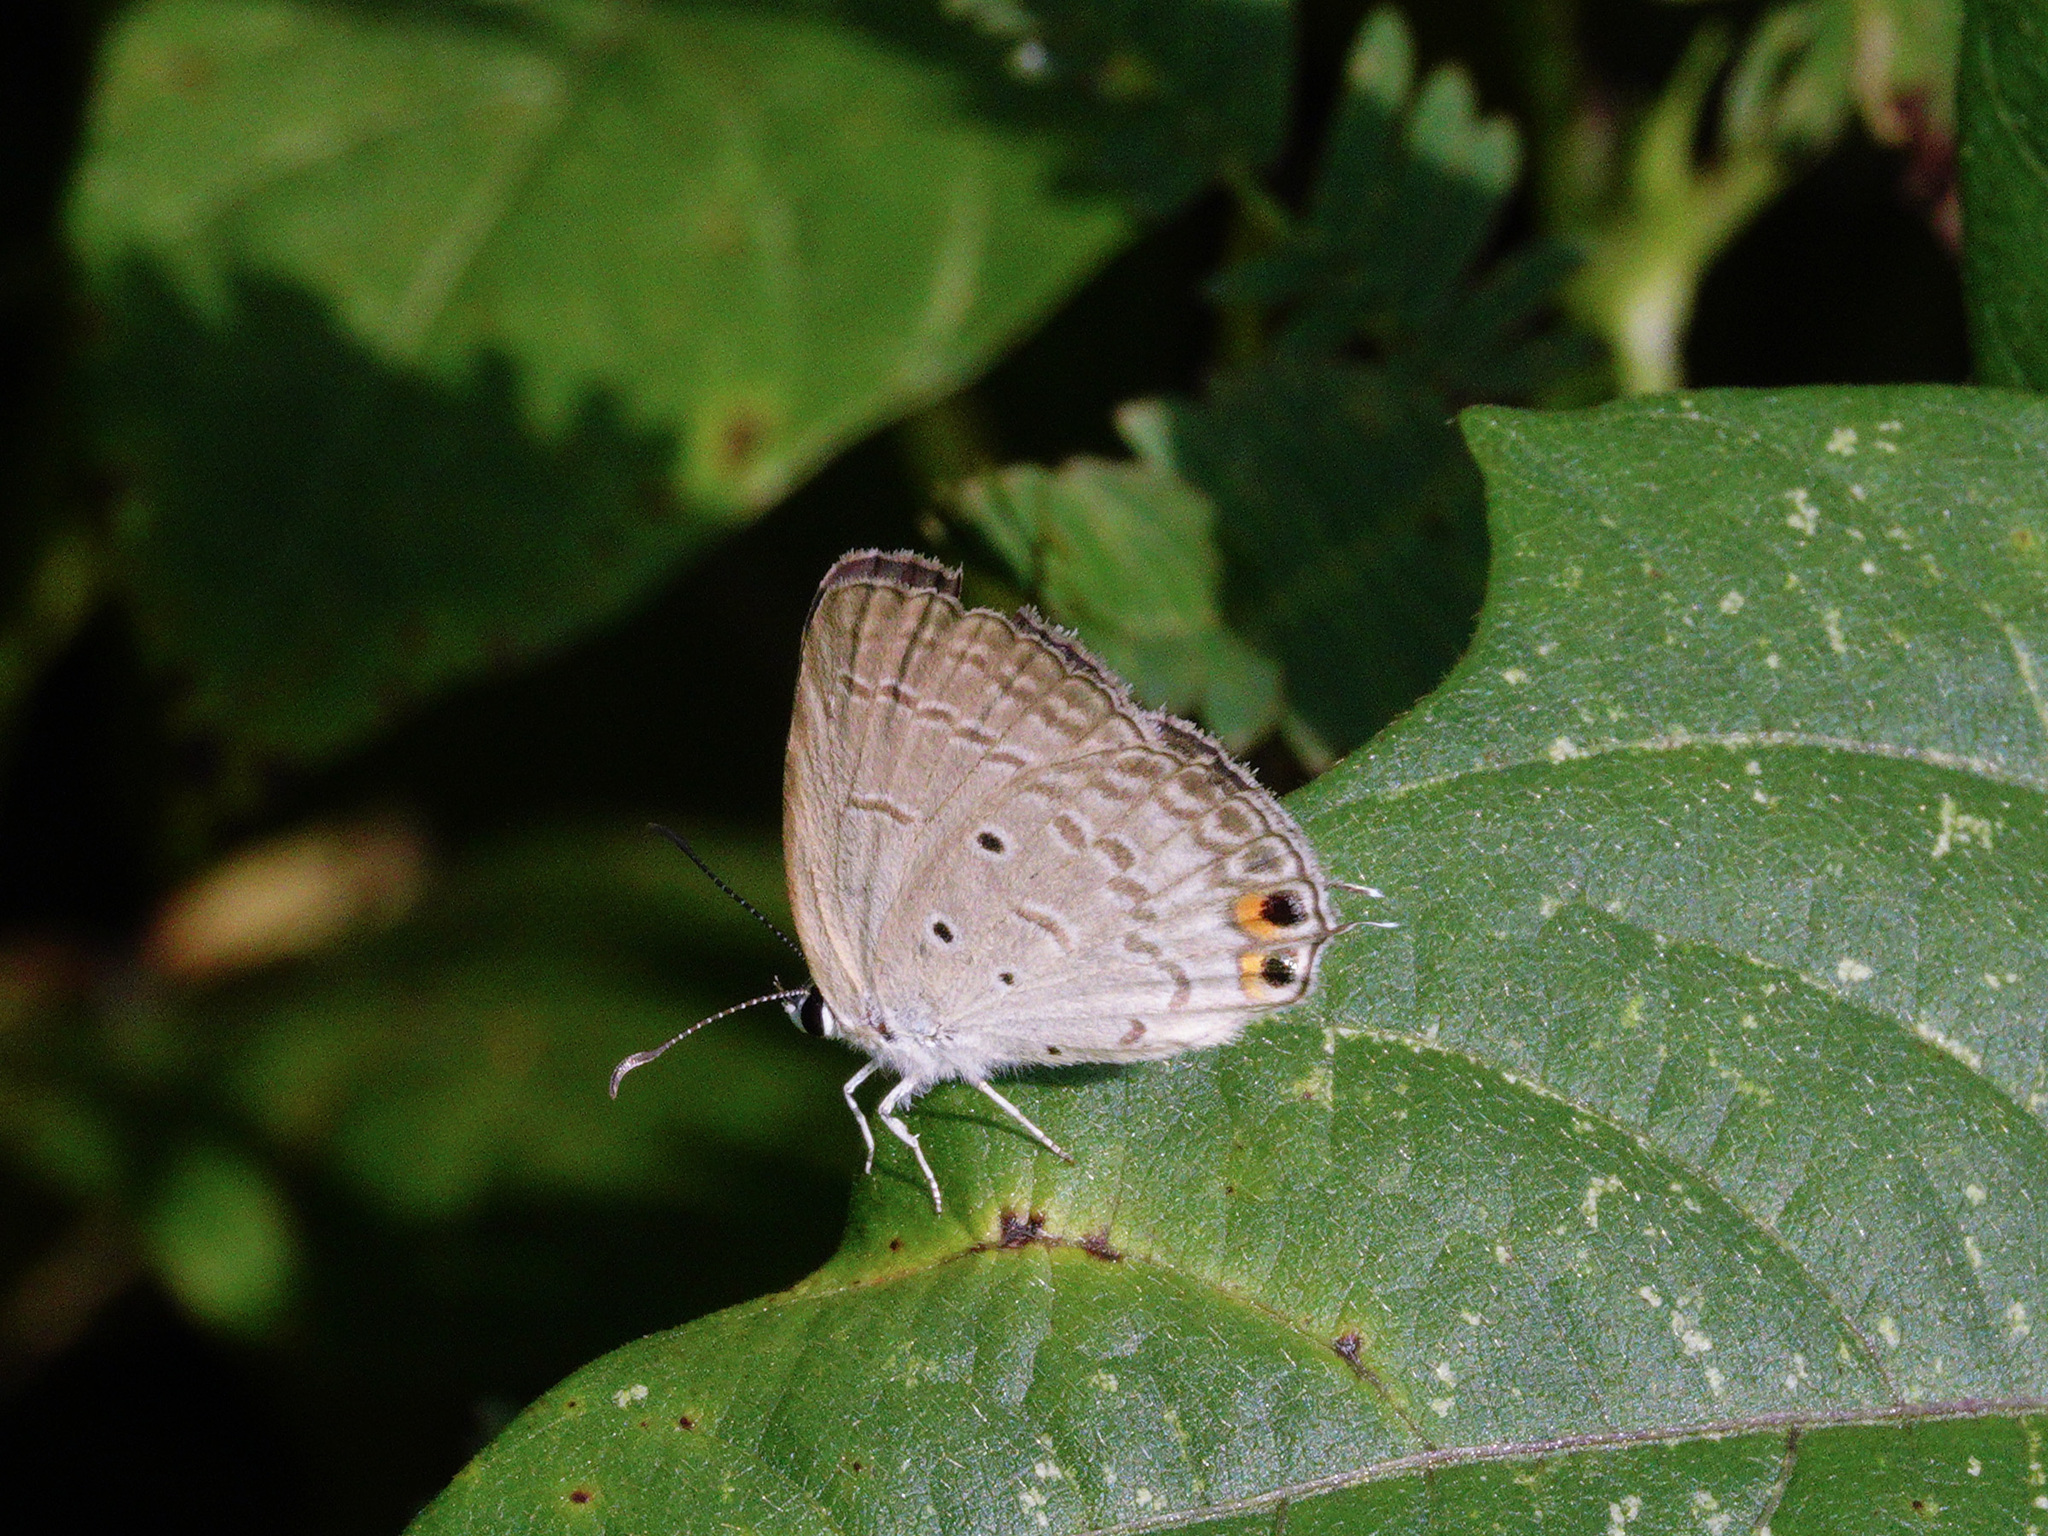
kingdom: Animalia
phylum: Arthropoda
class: Insecta
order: Lepidoptera
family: Lycaenidae
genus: Euchrysops
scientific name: Euchrysops cnejus
